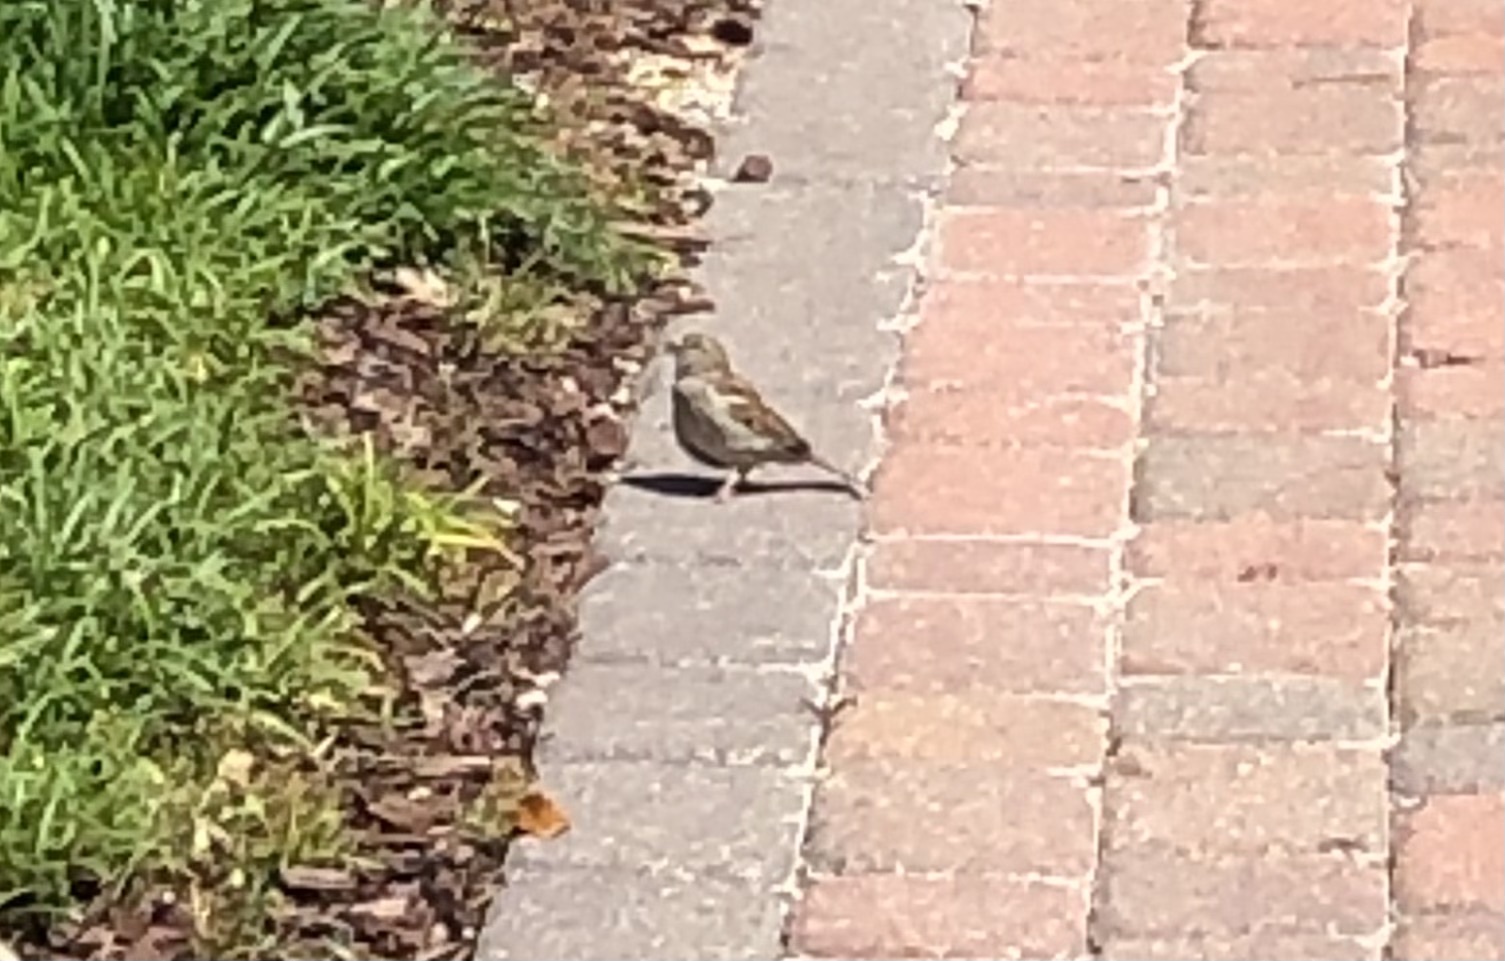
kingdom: Animalia
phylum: Chordata
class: Aves
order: Passeriformes
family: Passeridae
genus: Passer
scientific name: Passer domesticus
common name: House sparrow
